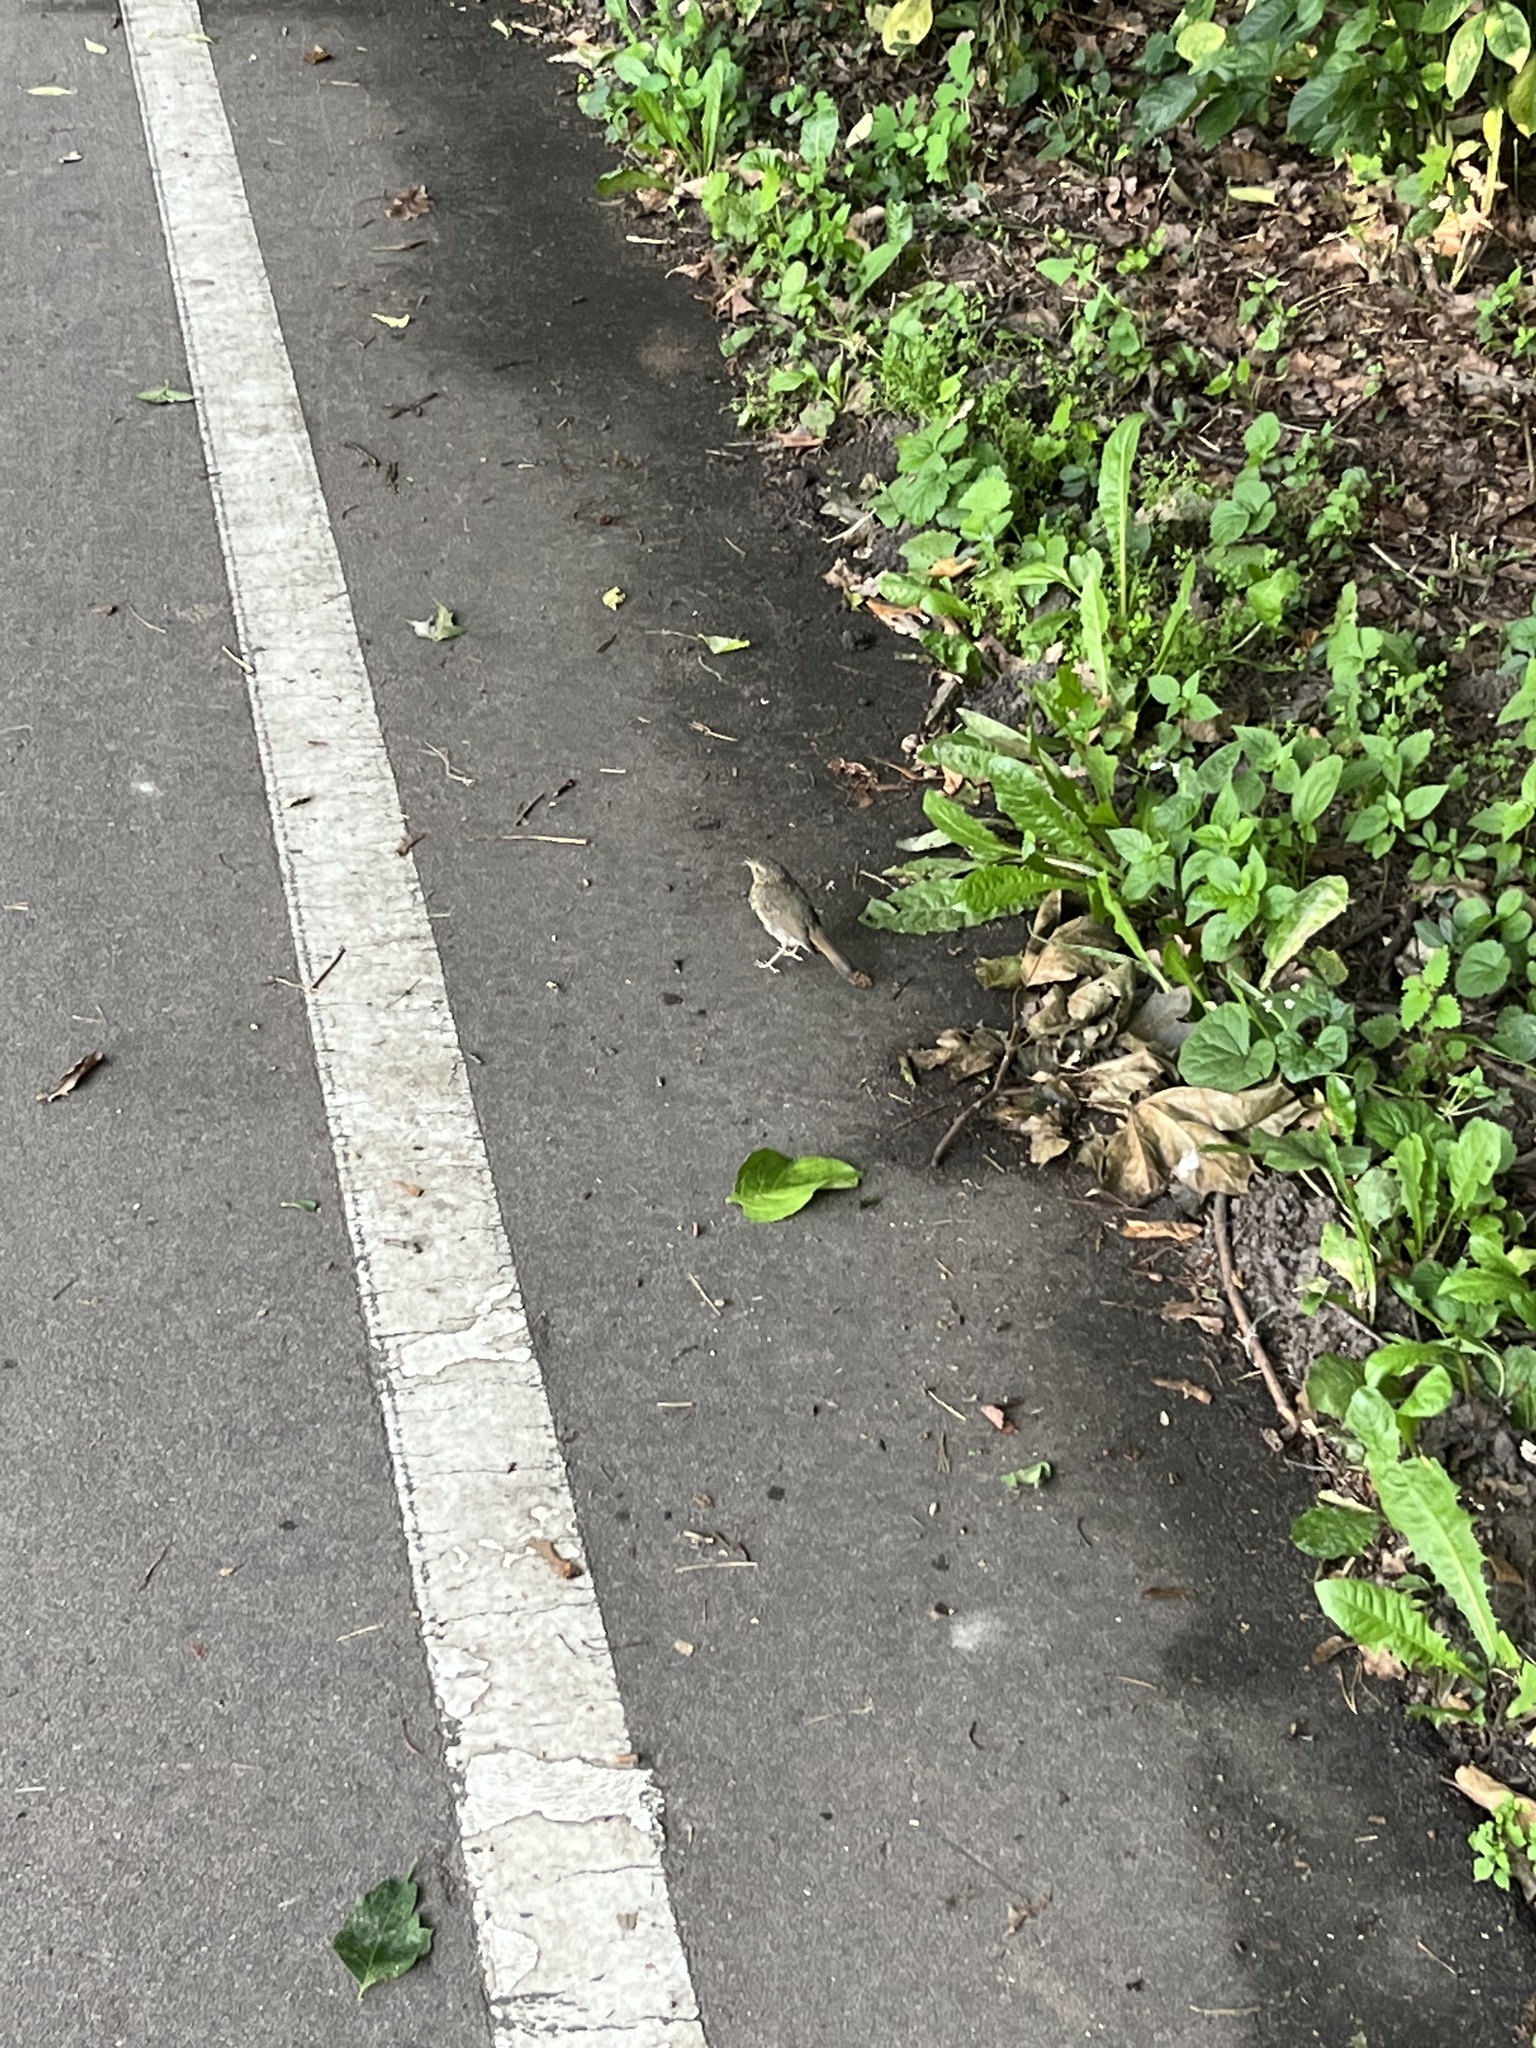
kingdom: Animalia
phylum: Chordata
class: Aves
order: Passeriformes
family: Muscicapidae
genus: Erithacus
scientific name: Erithacus rubecula
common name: European robin
